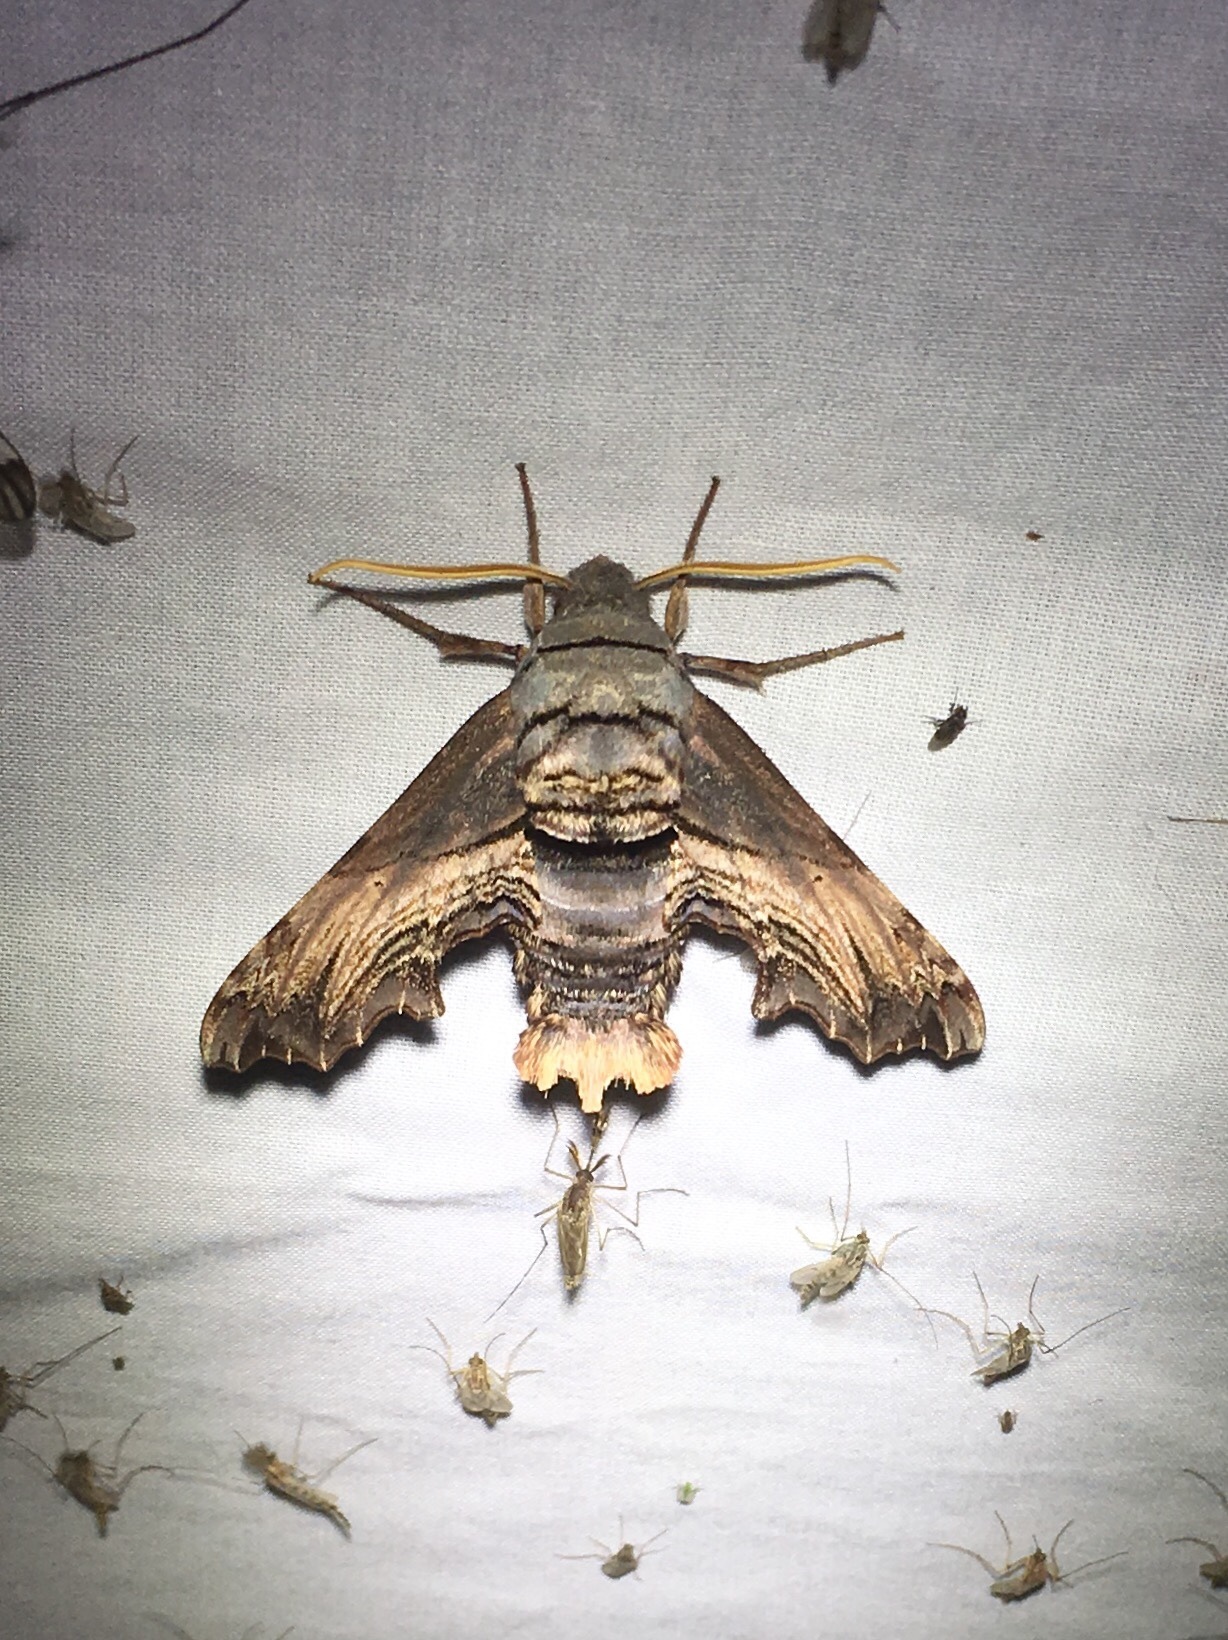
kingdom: Animalia
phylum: Arthropoda
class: Insecta
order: Lepidoptera
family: Sphingidae
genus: Sphecodina
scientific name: Sphecodina abbottii
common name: Abbott's sphinx
